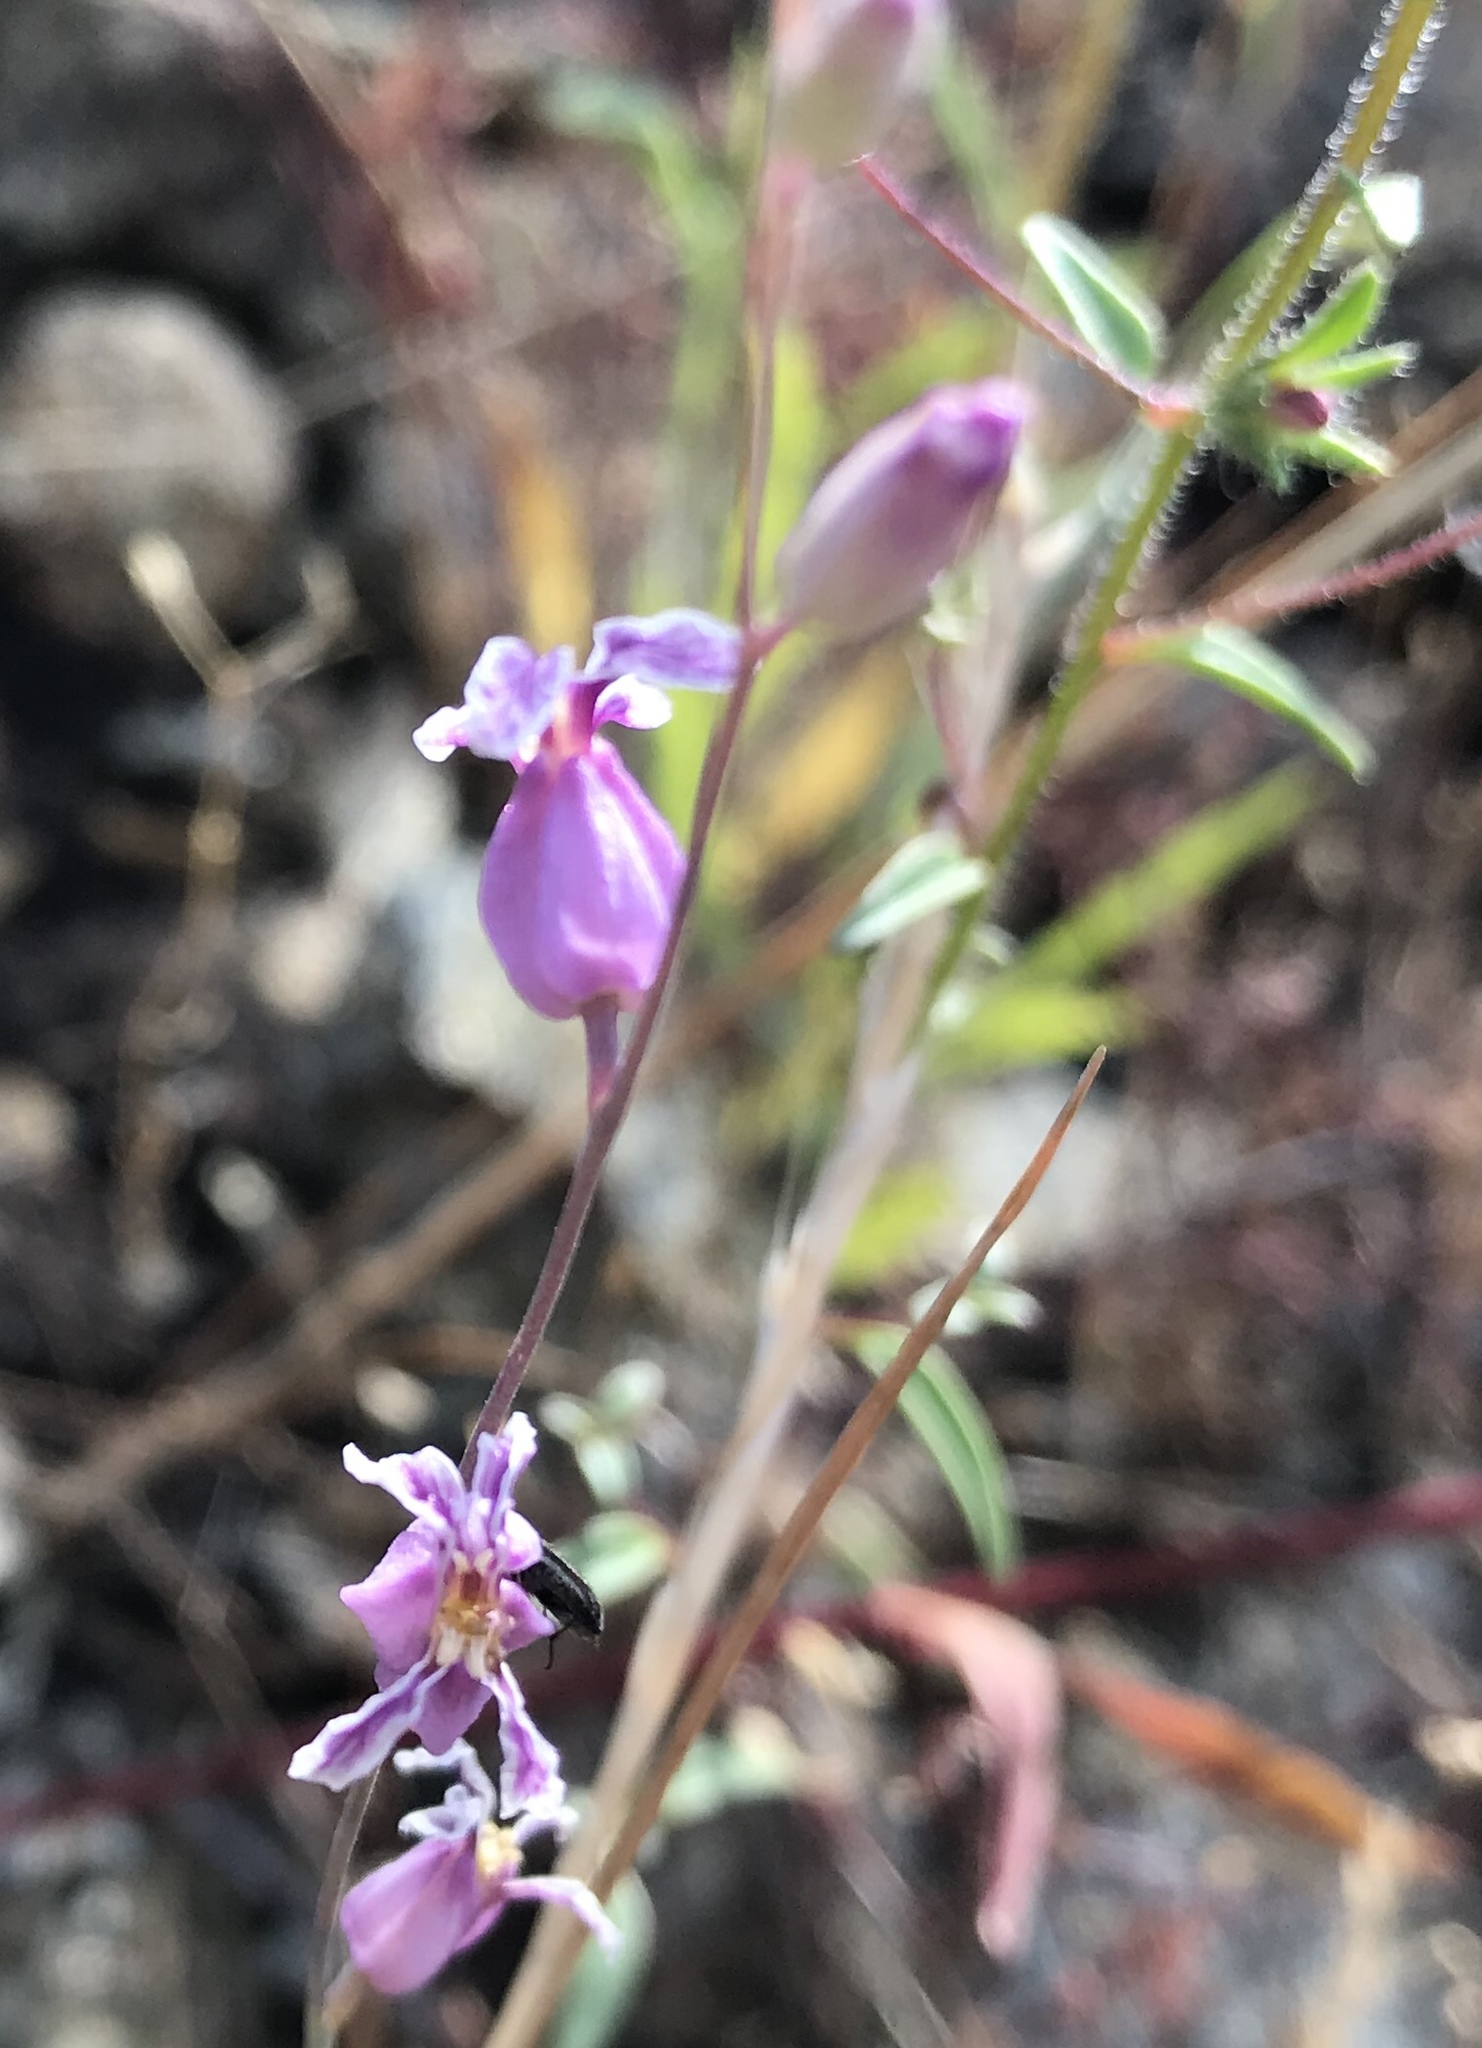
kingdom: Plantae
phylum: Tracheophyta
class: Magnoliopsida
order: Brassicales
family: Brassicaceae
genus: Streptanthus
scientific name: Streptanthus glandulosus
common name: Jewel-flower
